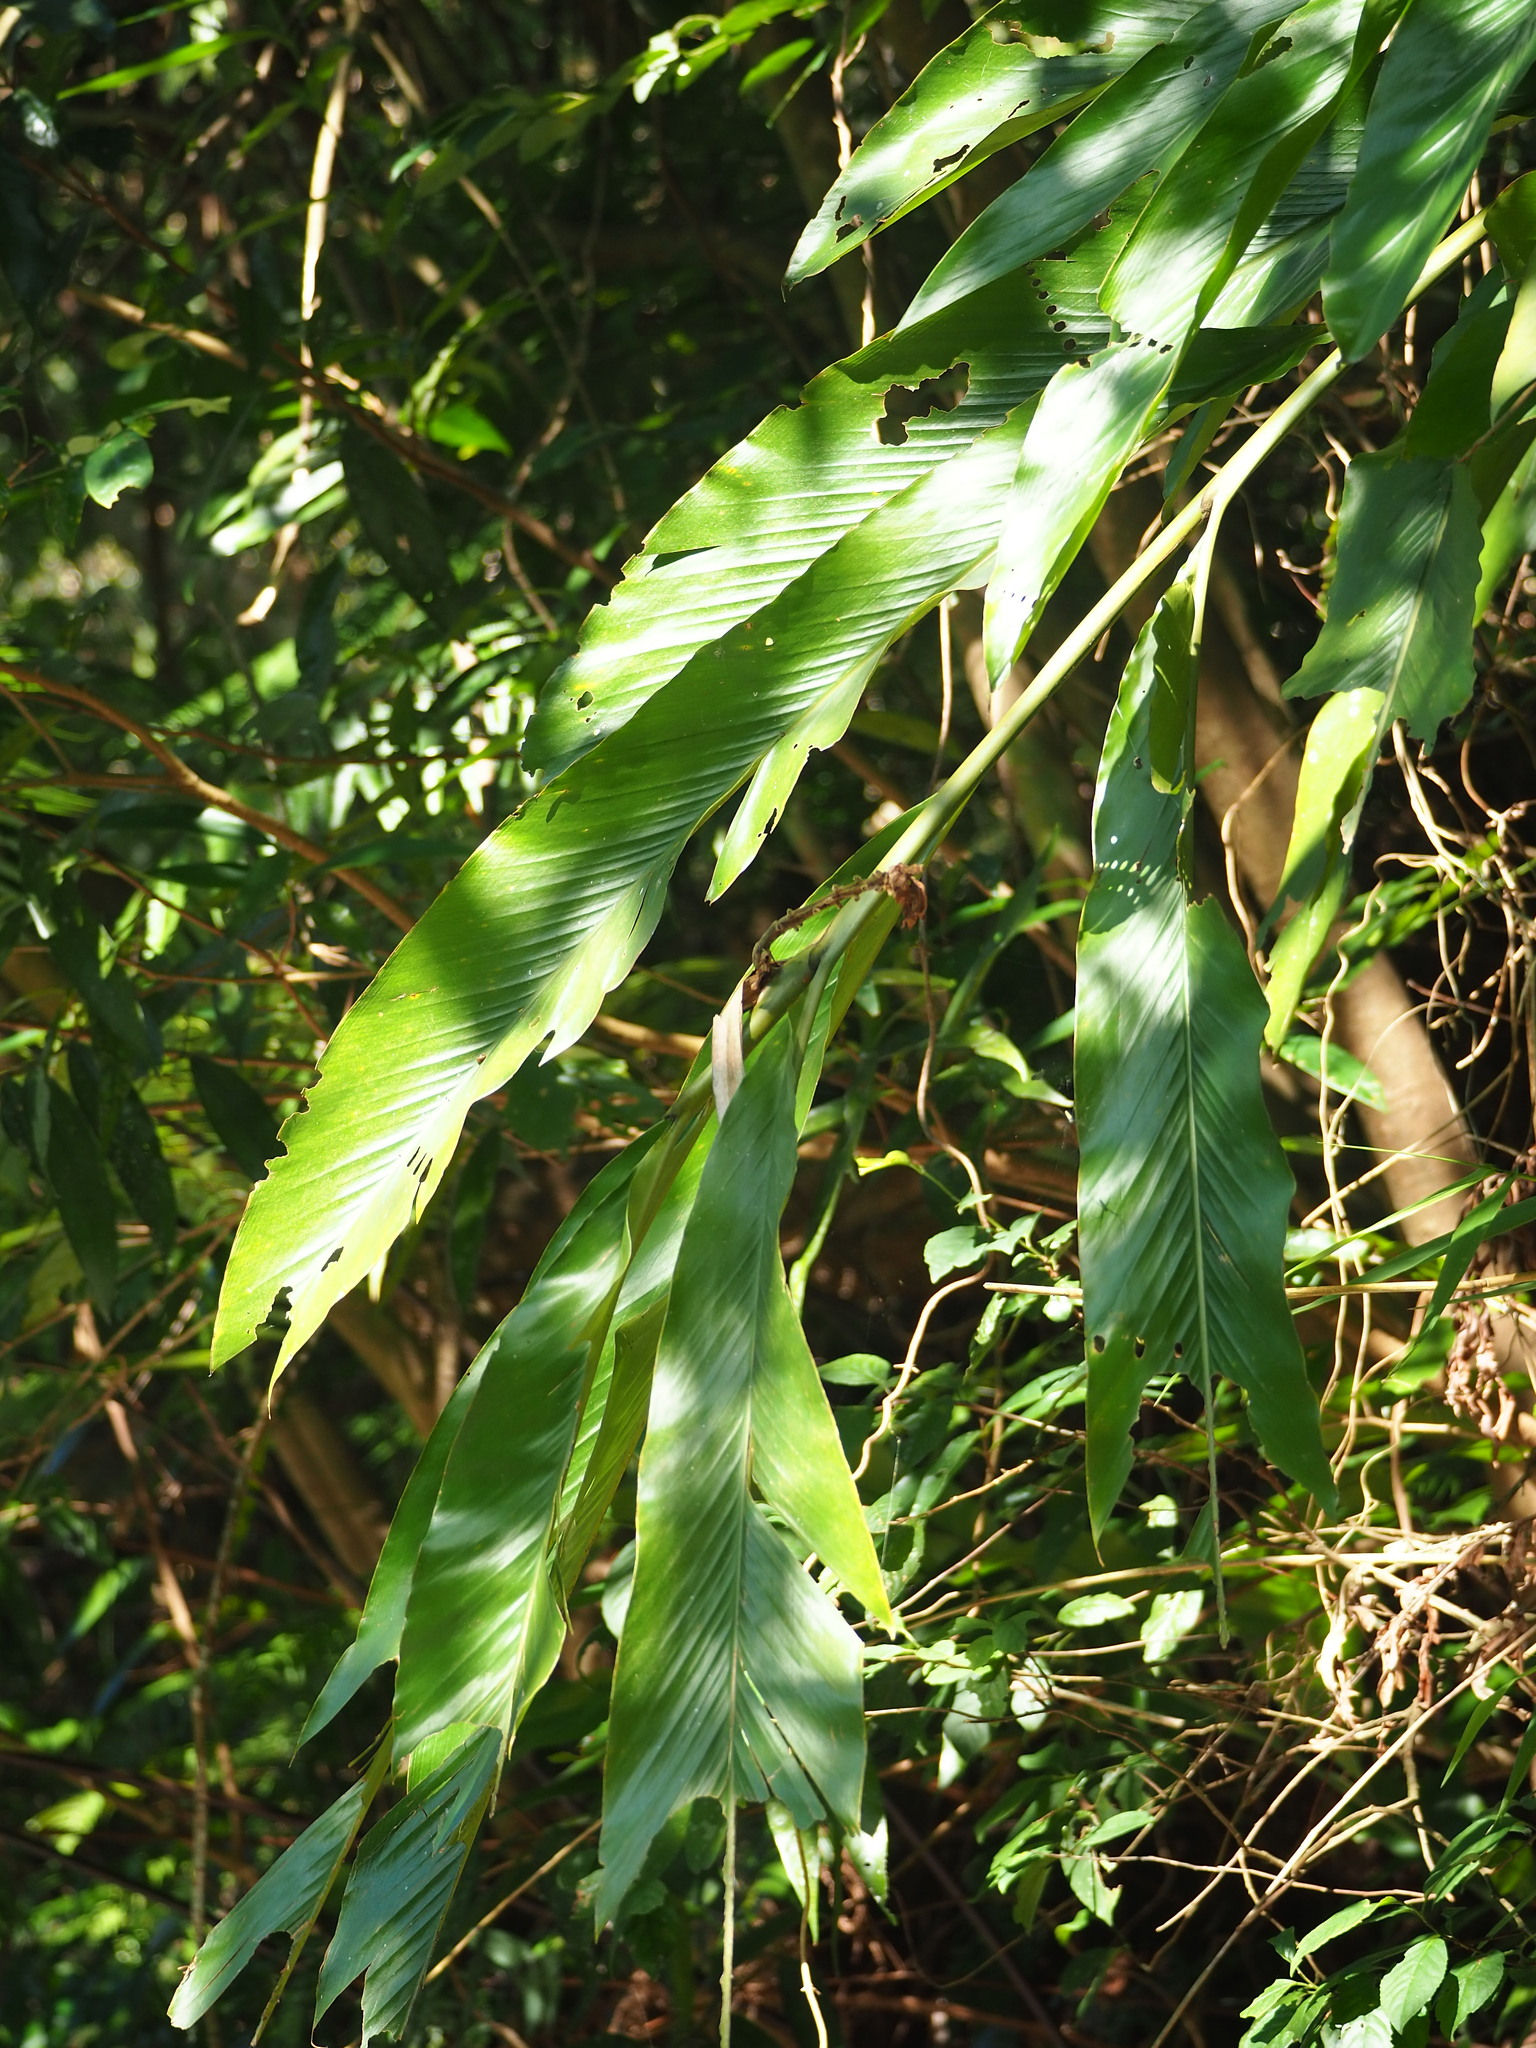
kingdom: Plantae
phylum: Tracheophyta
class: Liliopsida
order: Zingiberales
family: Zingiberaceae
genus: Alpinia
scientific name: Alpinia uraiensis
